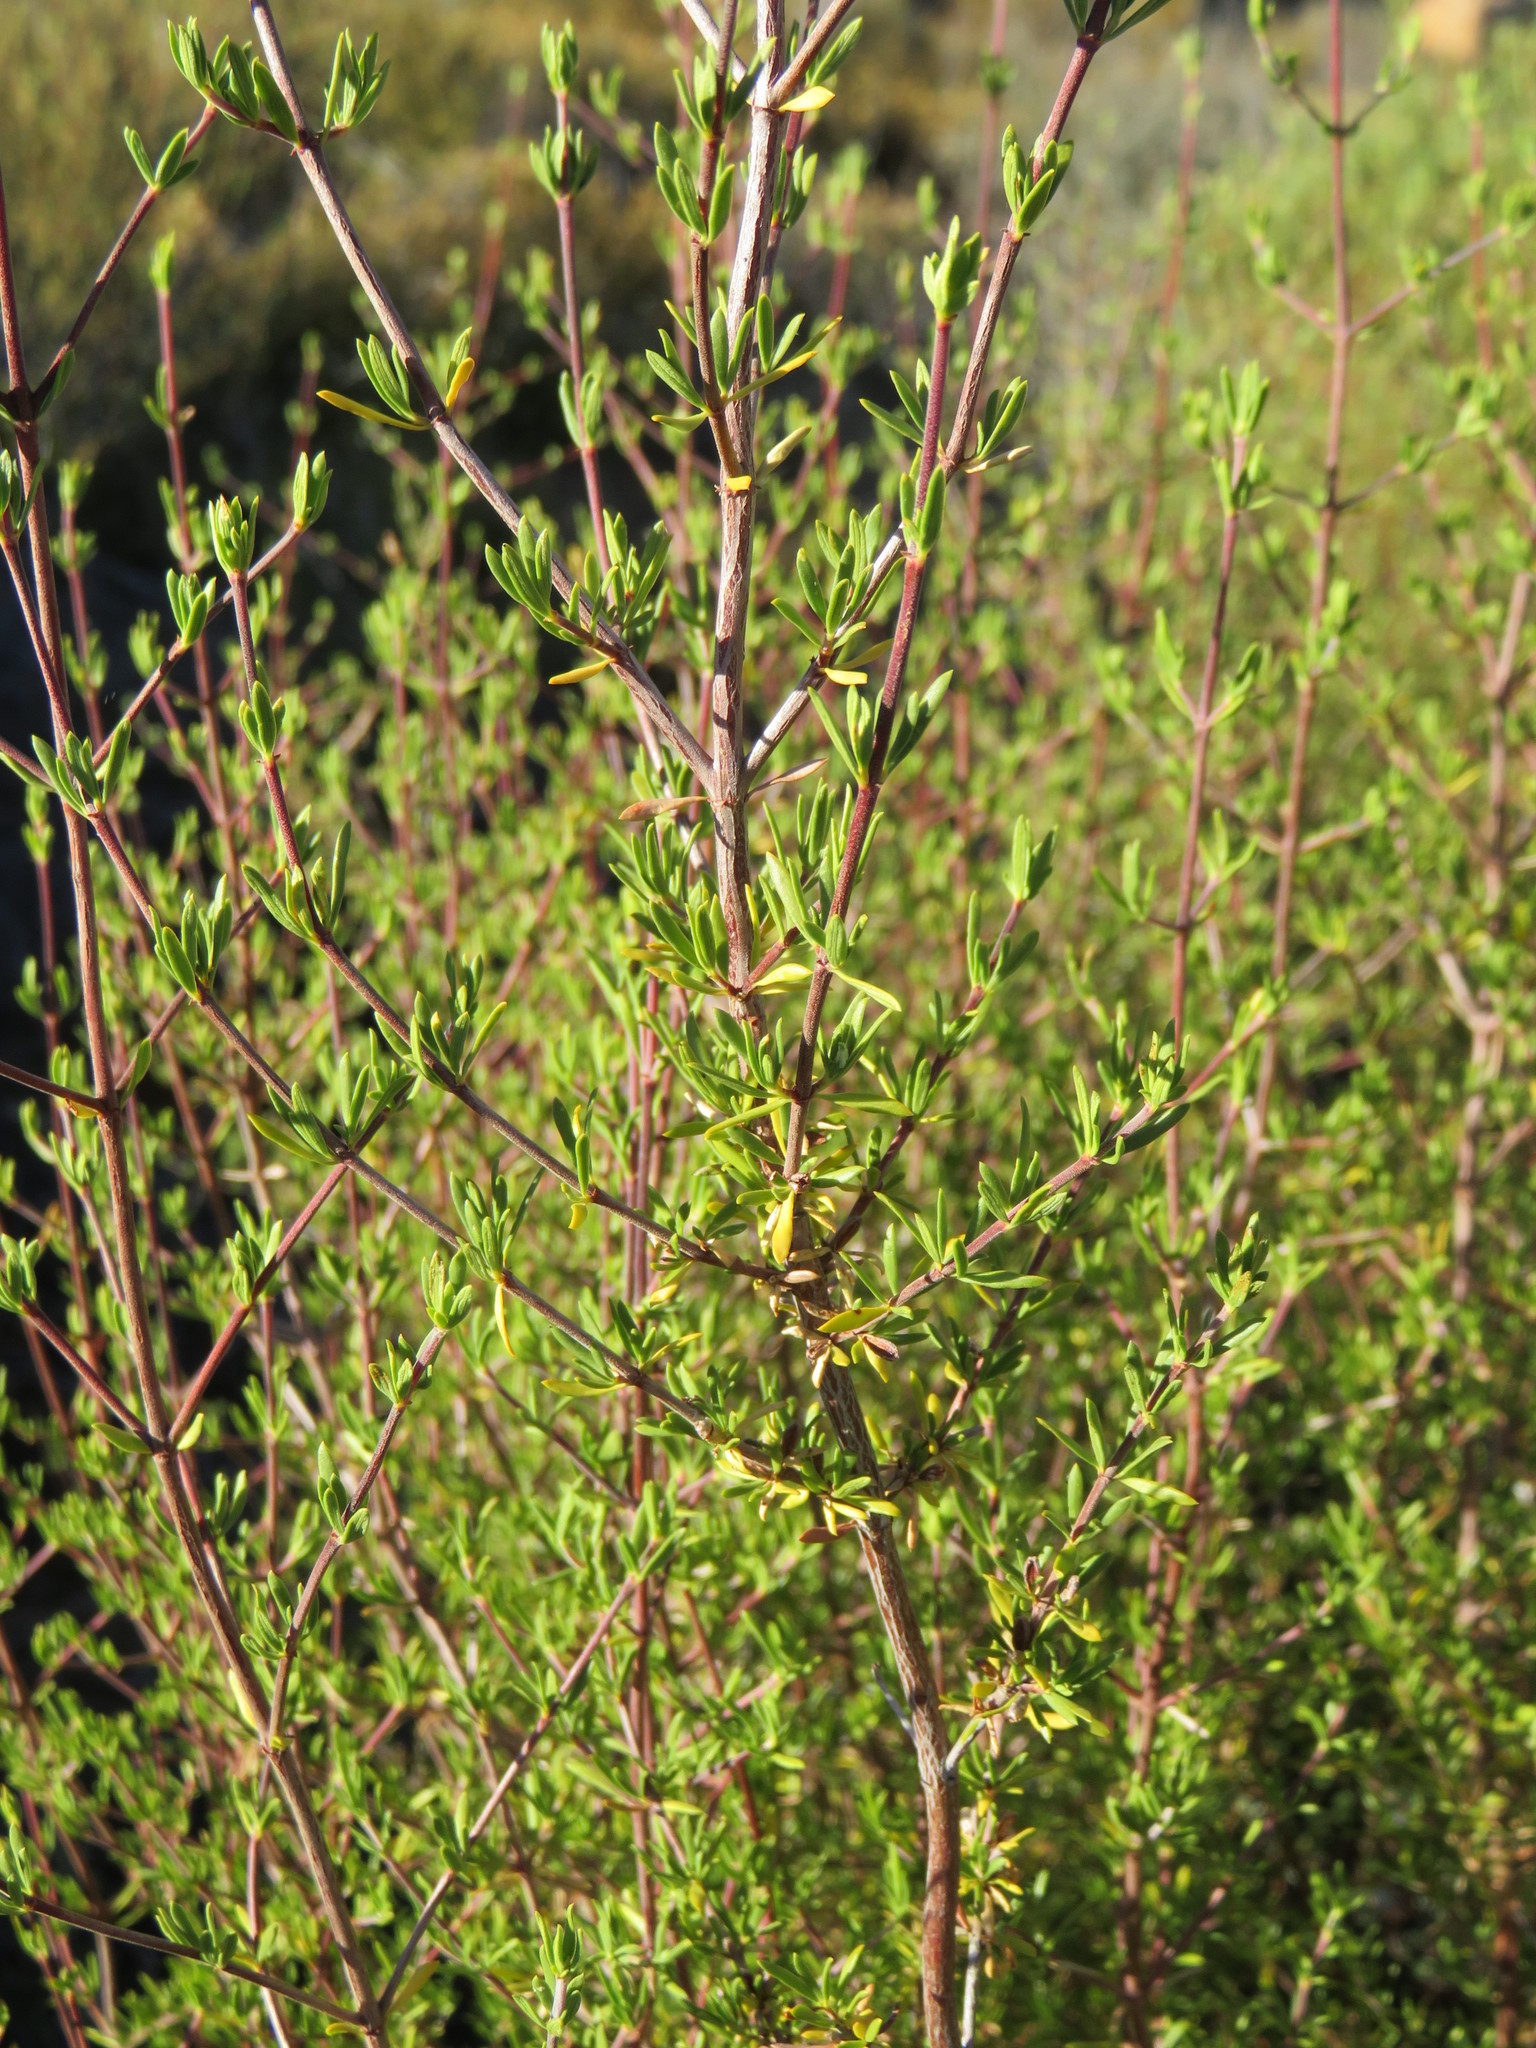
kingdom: Plantae
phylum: Tracheophyta
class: Magnoliopsida
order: Gentianales
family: Rubiaceae
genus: Anthospermum
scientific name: Anthospermum spathulatum
